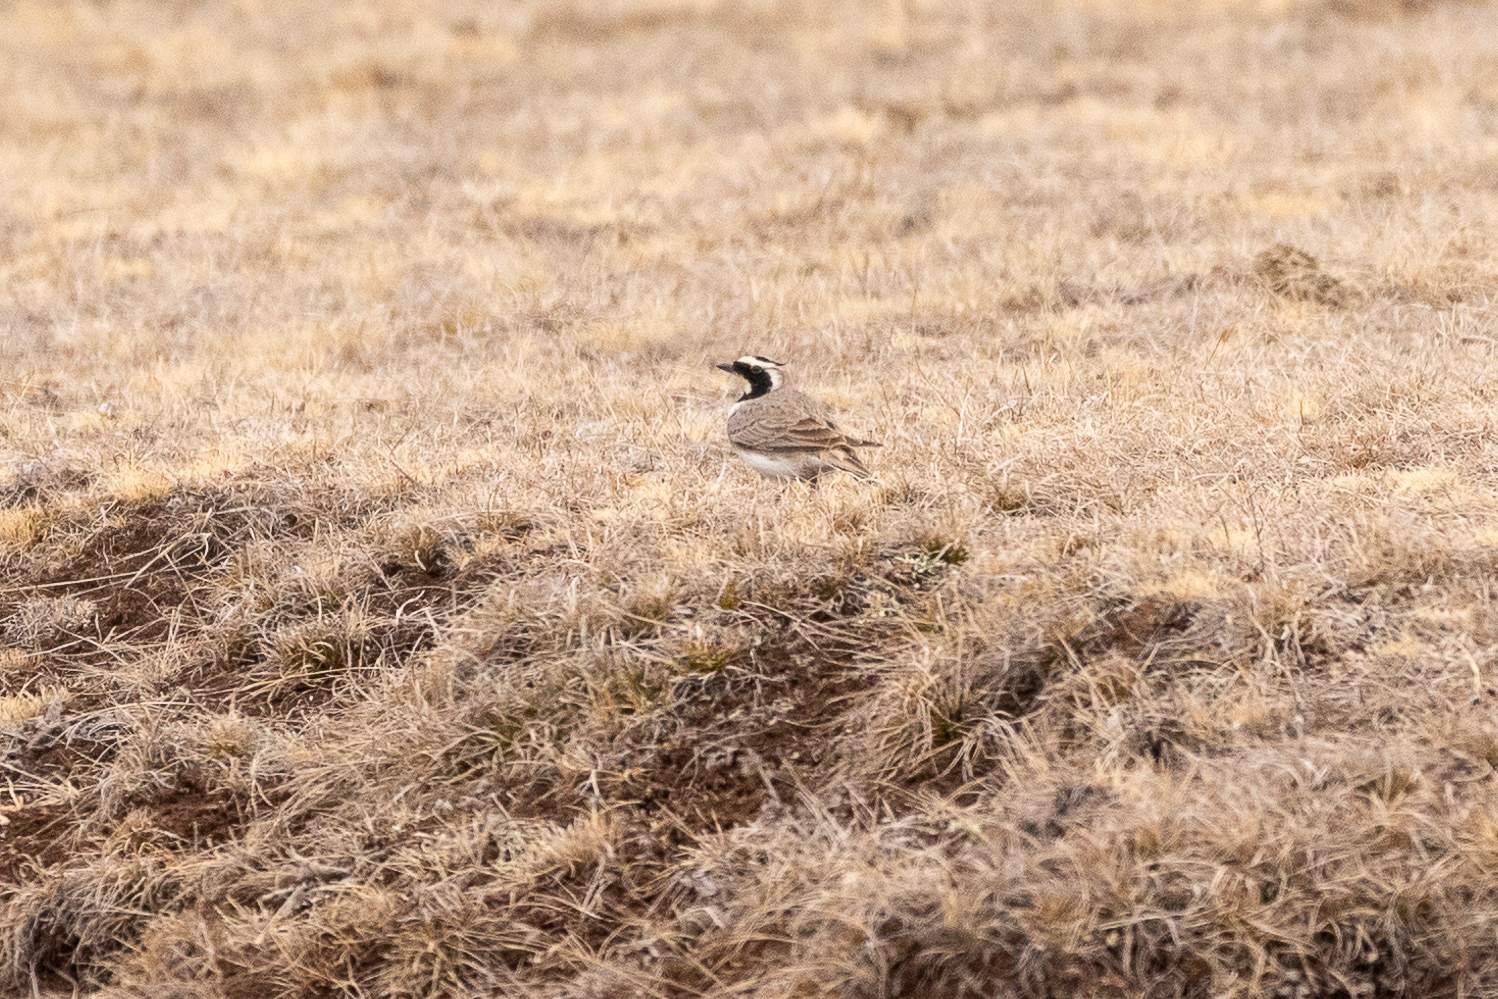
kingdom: Animalia
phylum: Chordata
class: Aves
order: Passeriformes
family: Alaudidae
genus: Eremophila
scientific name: Eremophila alpestris
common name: Horned lark
